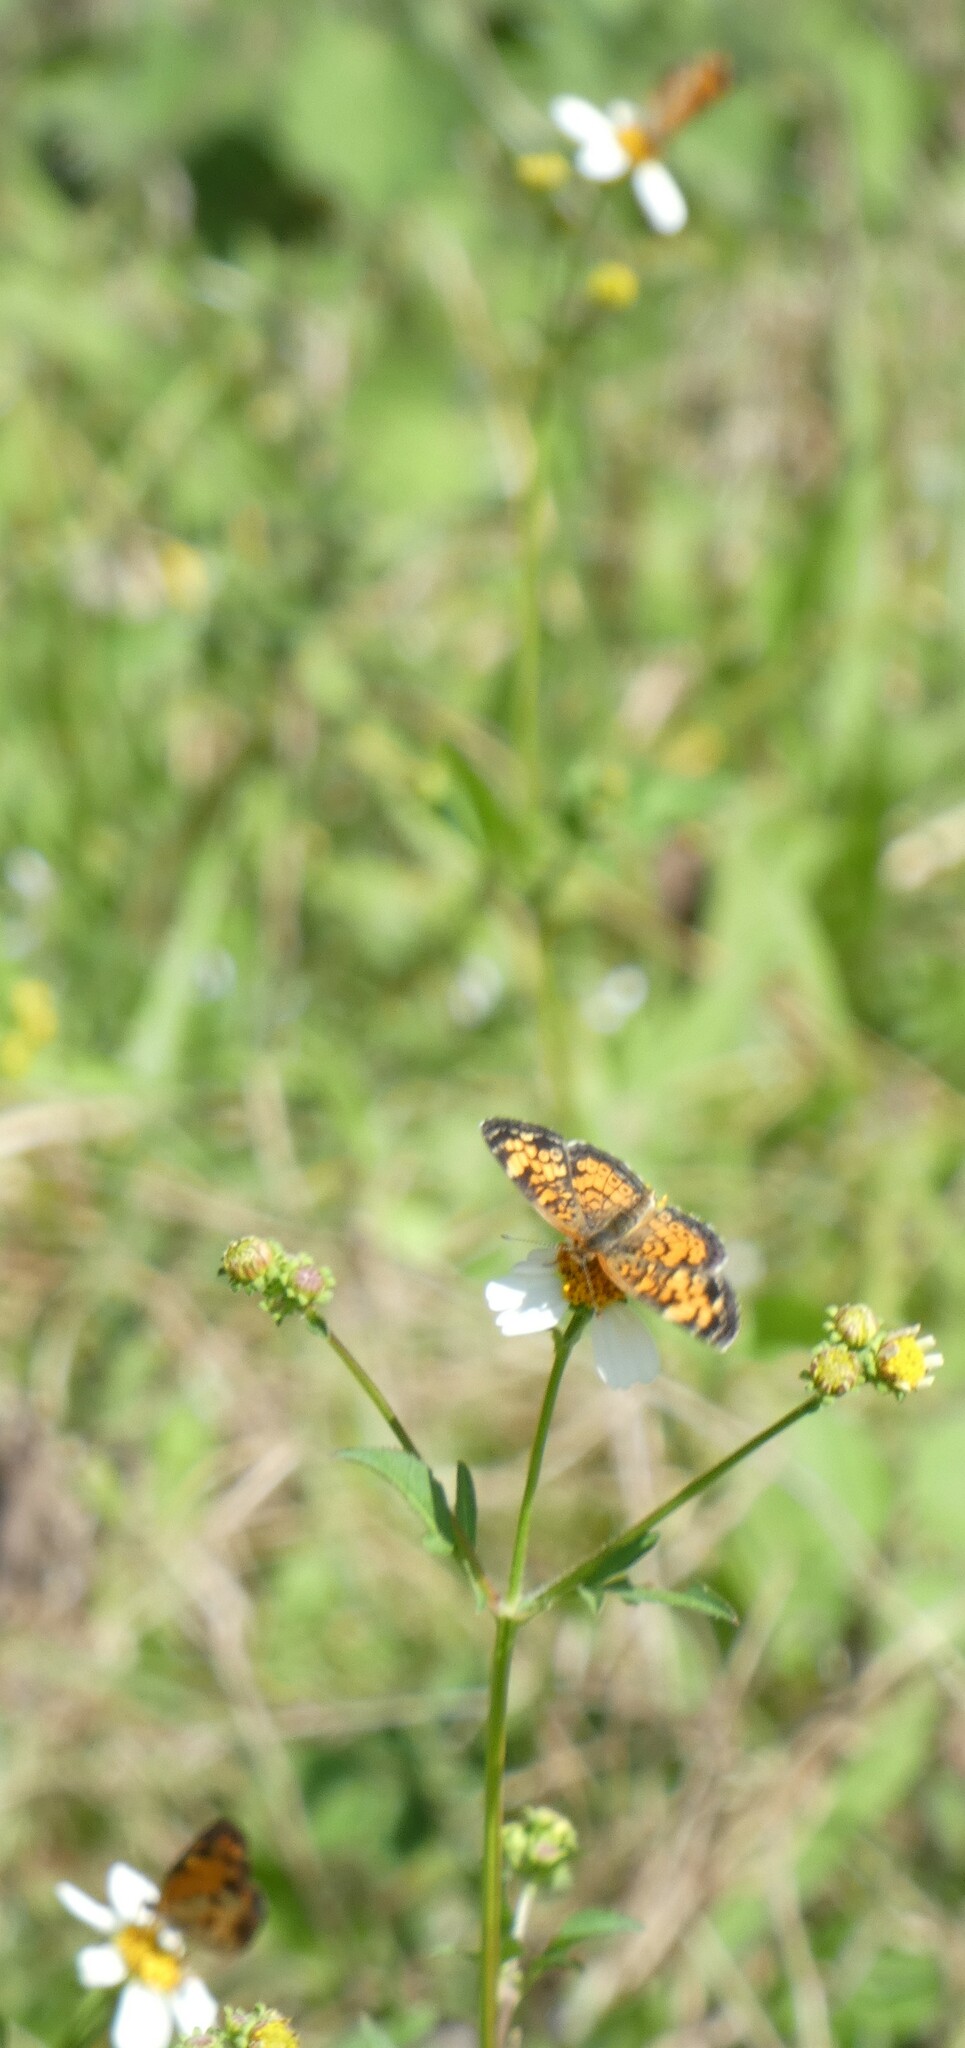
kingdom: Animalia
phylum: Arthropoda
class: Insecta
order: Lepidoptera
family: Nymphalidae
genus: Phyciodes
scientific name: Phyciodes tharos
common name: Pearl crescent
